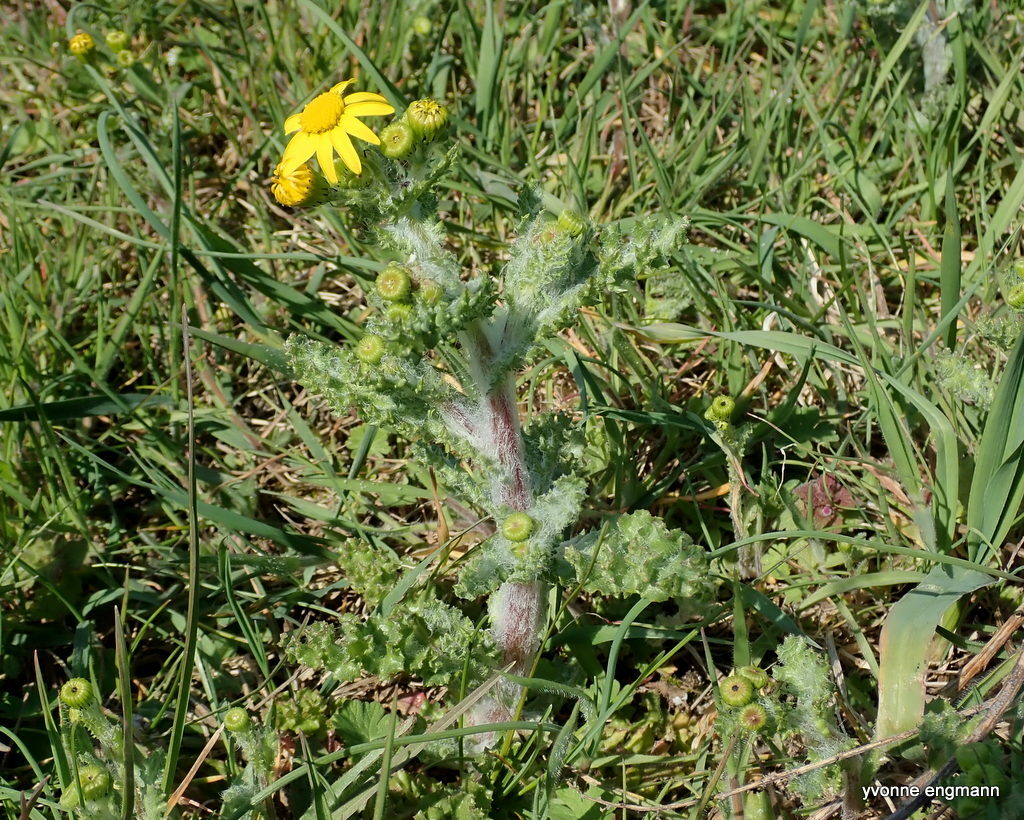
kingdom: Plantae
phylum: Tracheophyta
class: Magnoliopsida
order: Asterales
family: Asteraceae
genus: Senecio
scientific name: Senecio vernalis
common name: Eastern groundsel
